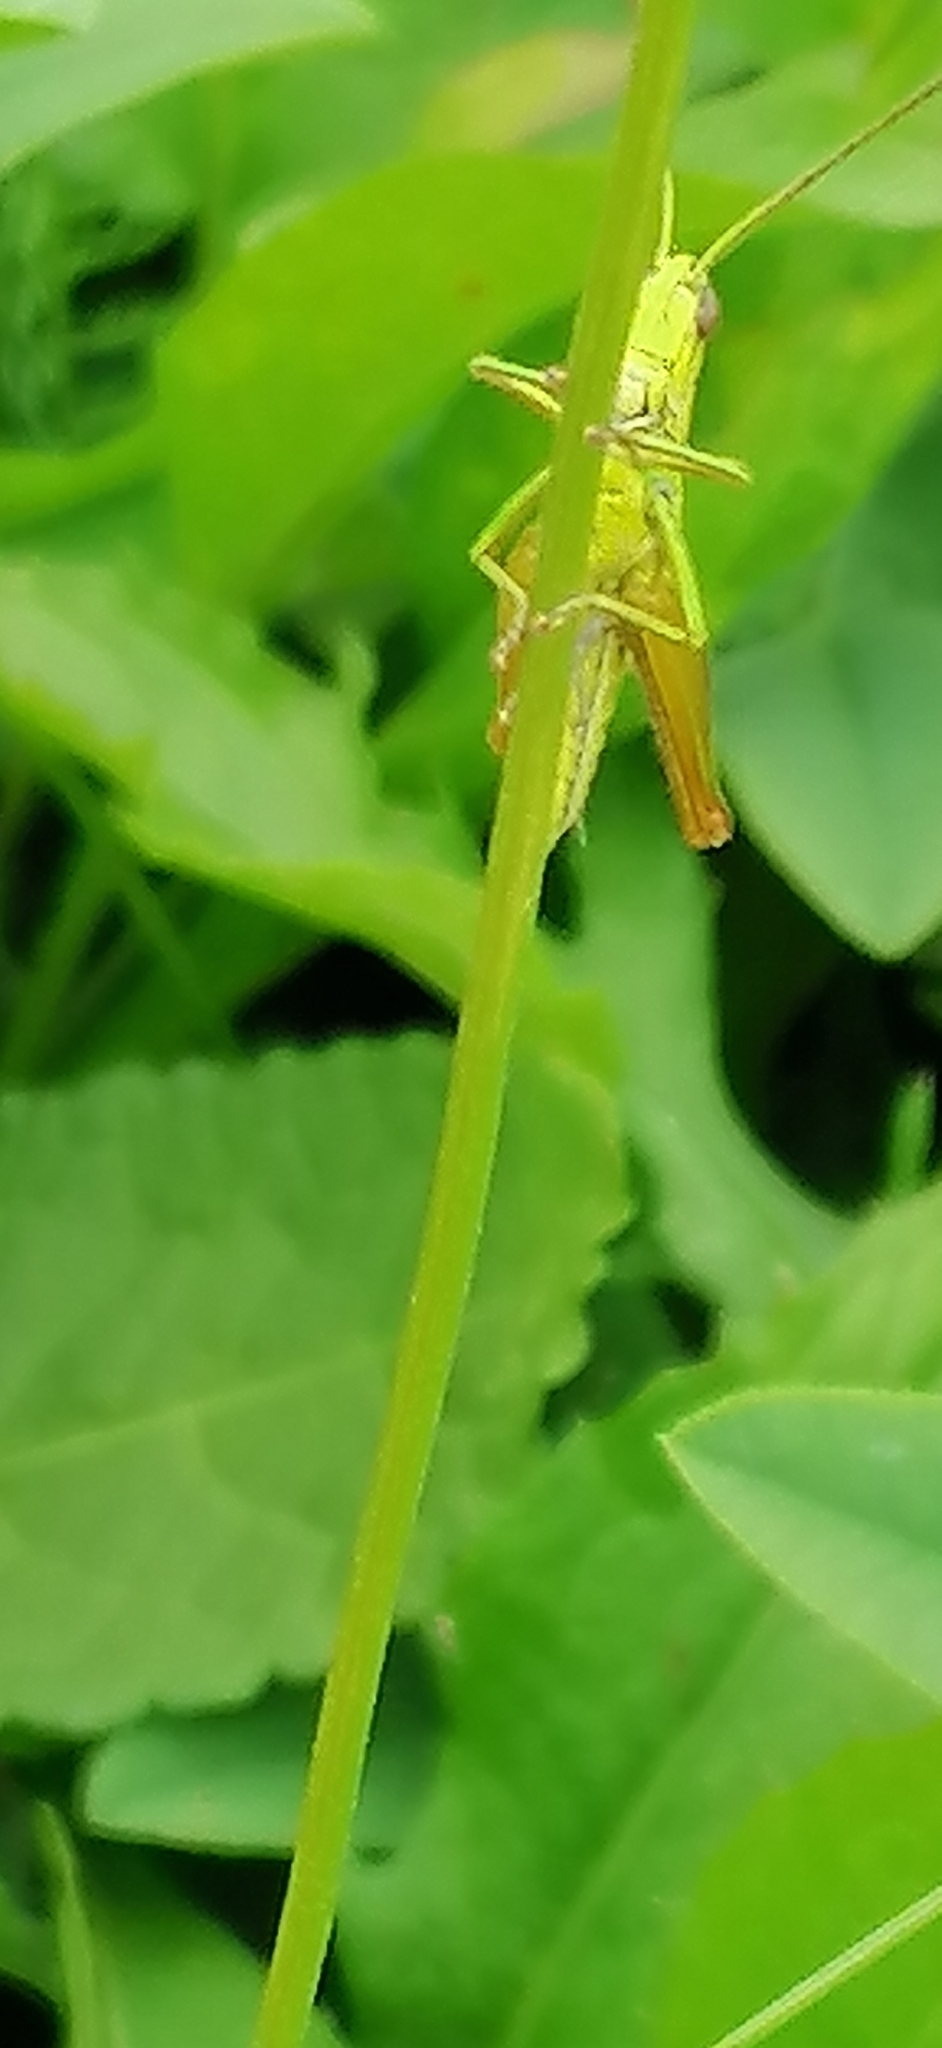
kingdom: Animalia
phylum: Arthropoda
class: Insecta
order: Orthoptera
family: Acrididae
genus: Euthystira
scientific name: Euthystira brachyptera
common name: Small gold grasshopper
